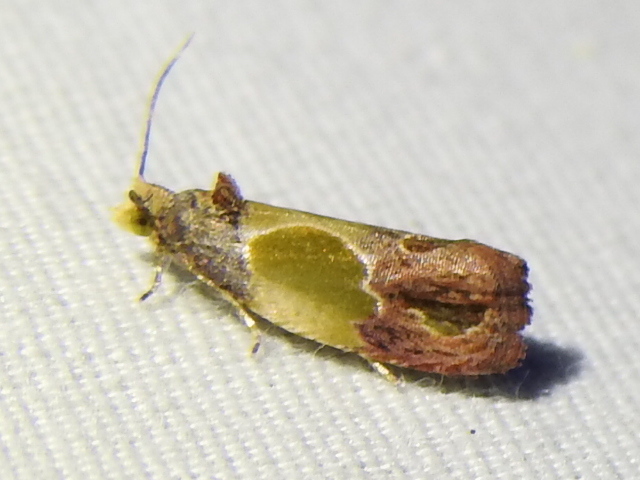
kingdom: Animalia
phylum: Arthropoda
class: Insecta
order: Lepidoptera
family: Tortricidae
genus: Eumarozia
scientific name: Eumarozia malachitana
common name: Sculptured moth
